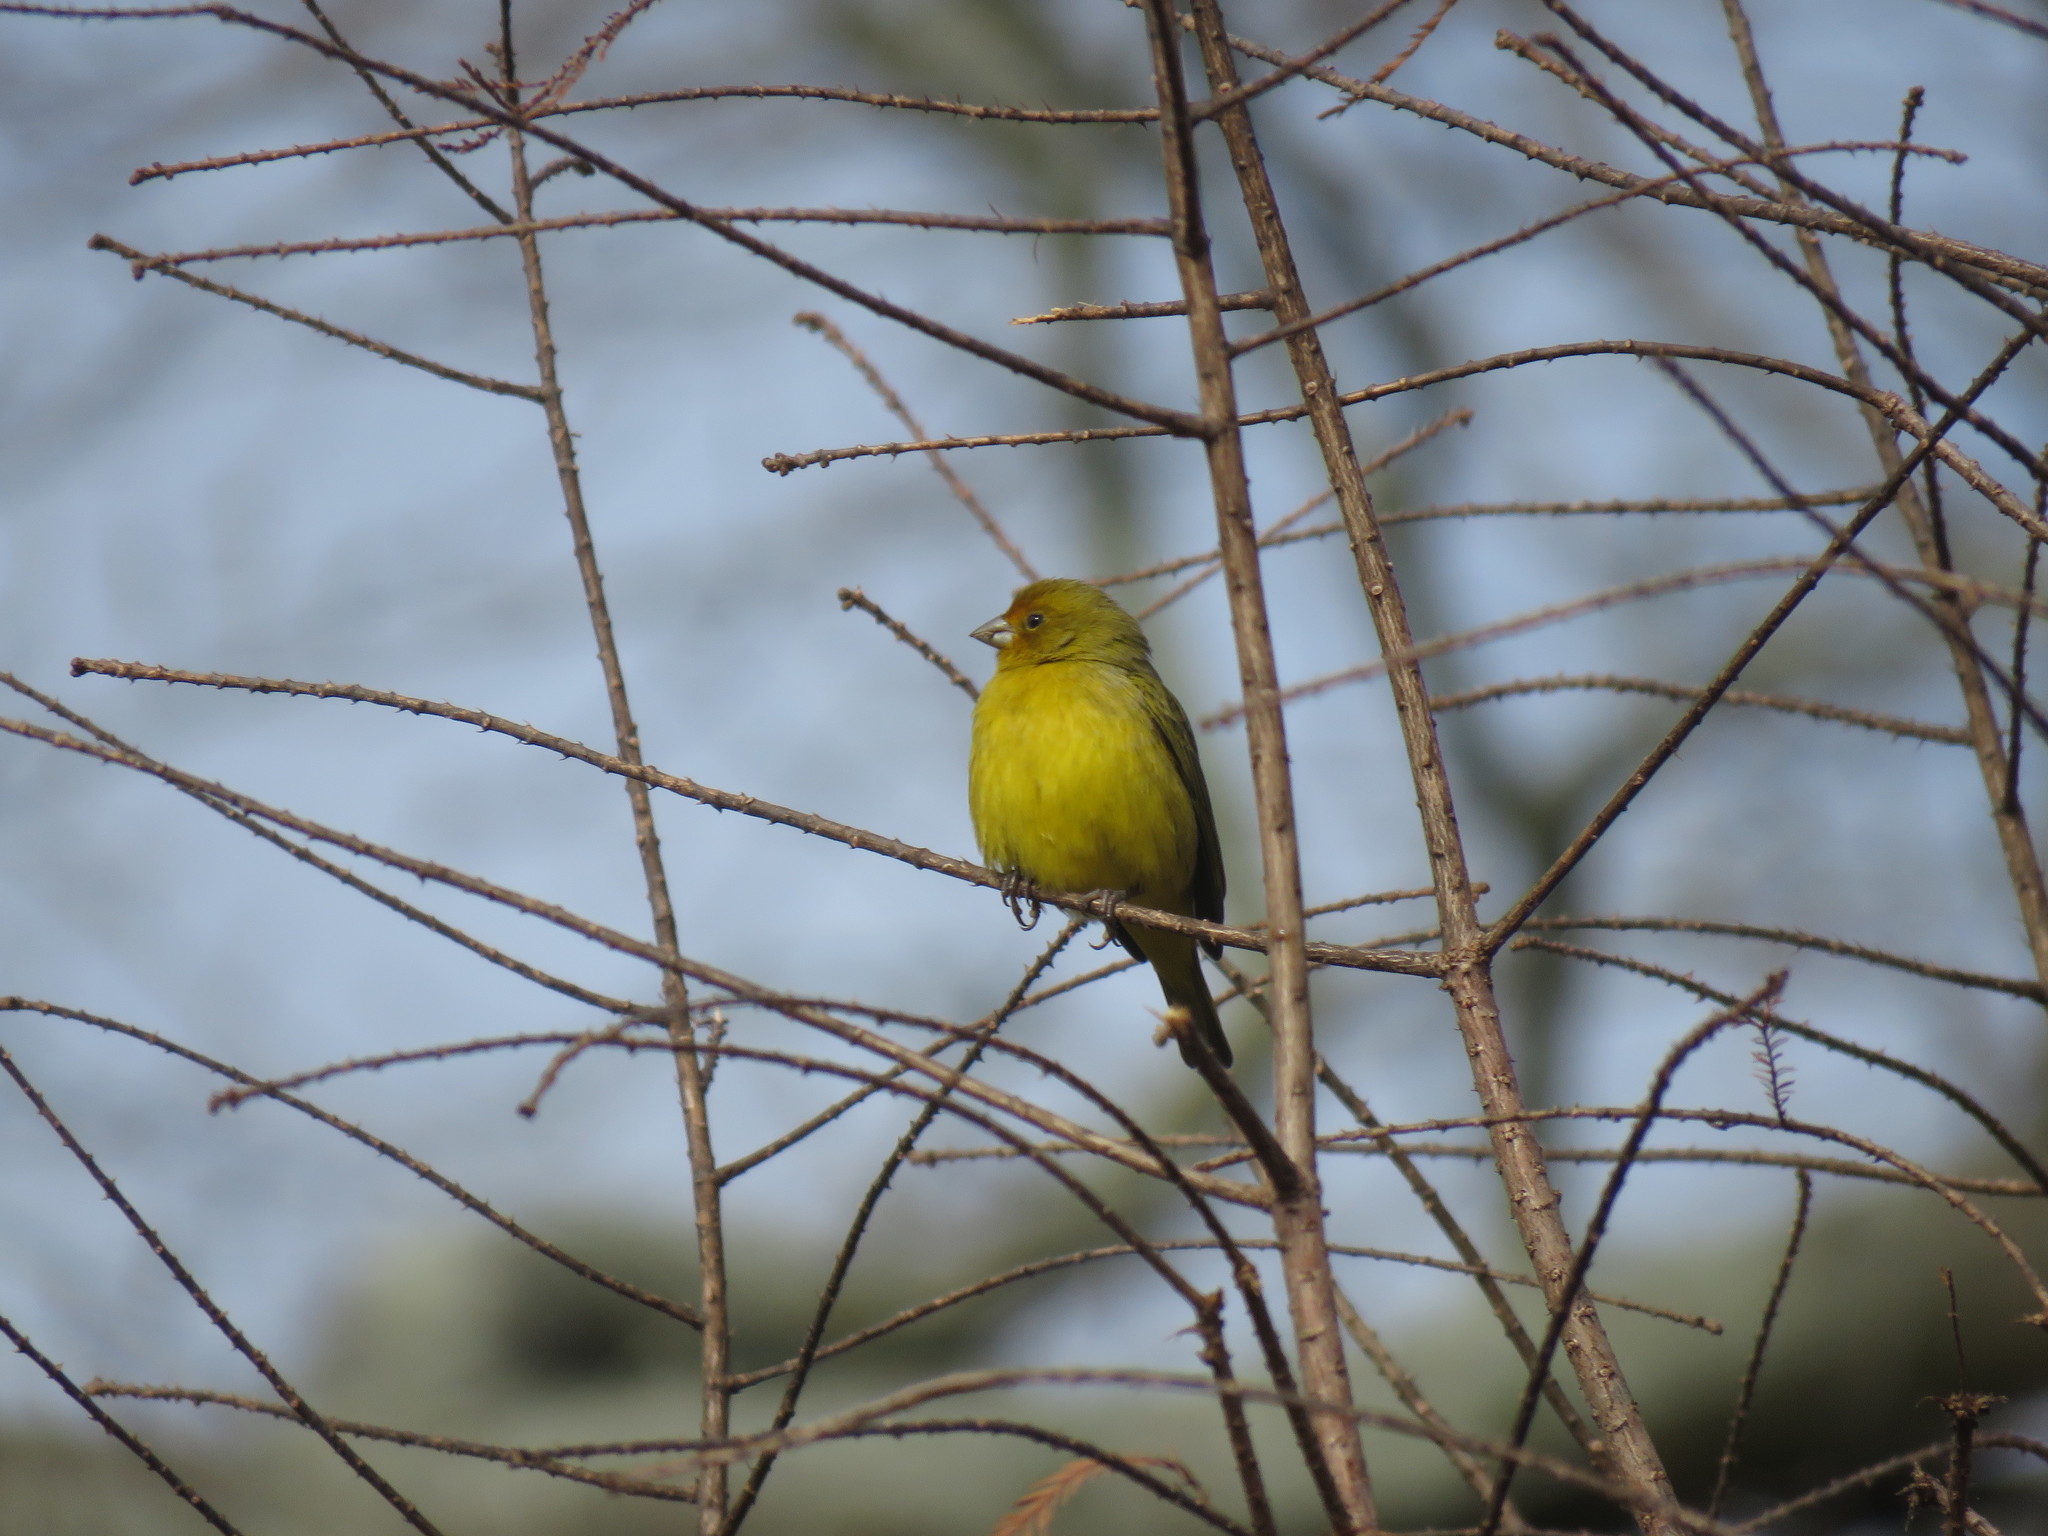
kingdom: Animalia
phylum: Chordata
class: Aves
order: Passeriformes
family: Thraupidae
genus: Sicalis
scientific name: Sicalis flaveola
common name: Saffron finch
